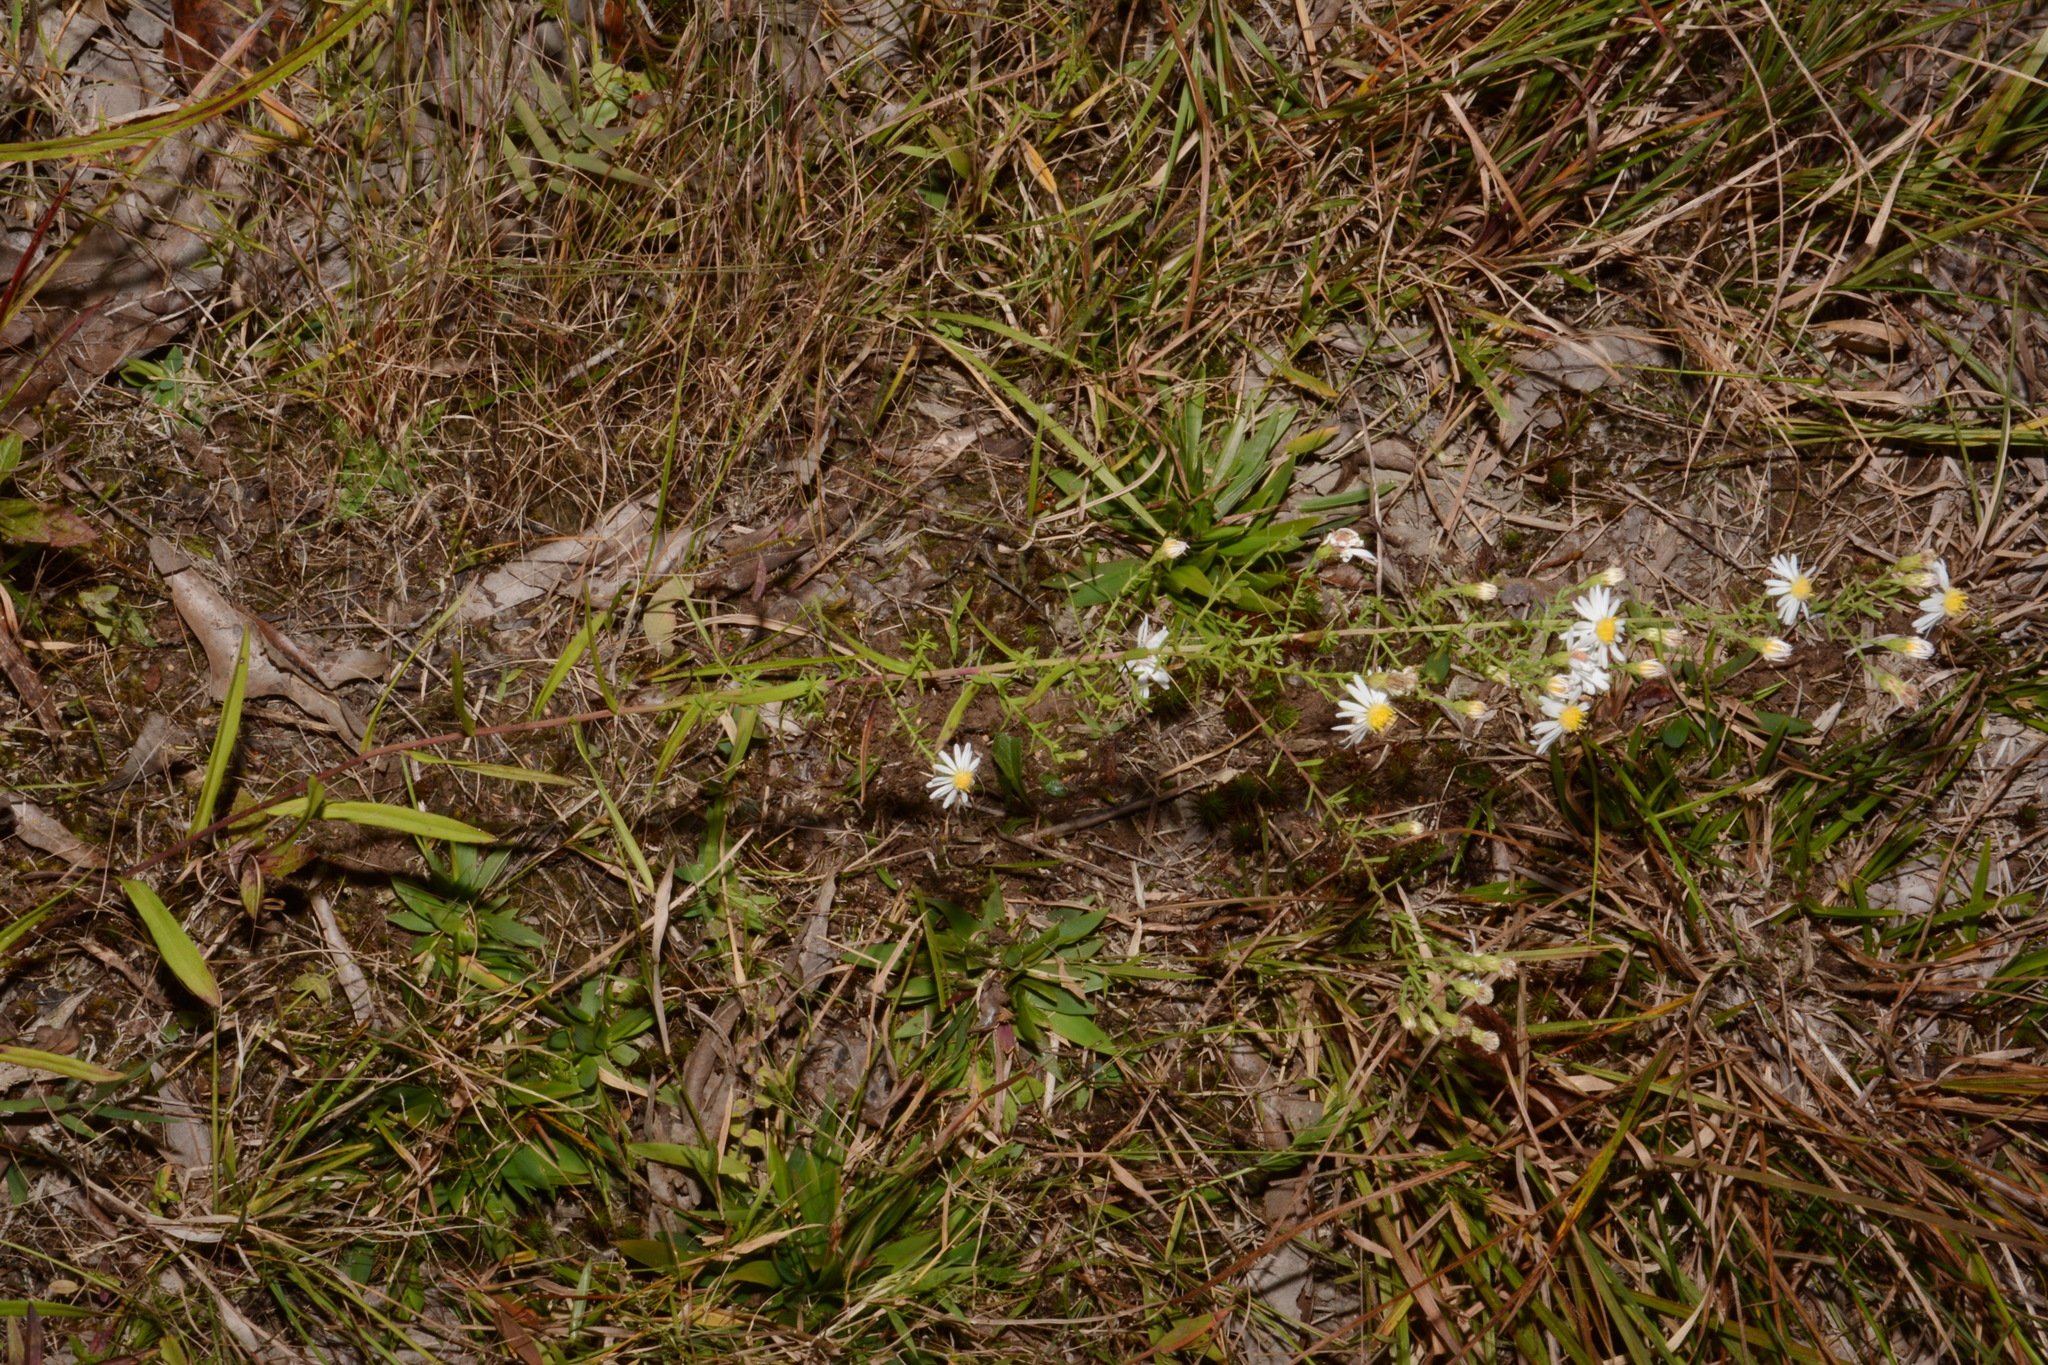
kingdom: Plantae
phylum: Tracheophyta
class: Magnoliopsida
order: Asterales
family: Asteraceae
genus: Symphyotrichum
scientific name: Symphyotrichum estesii
